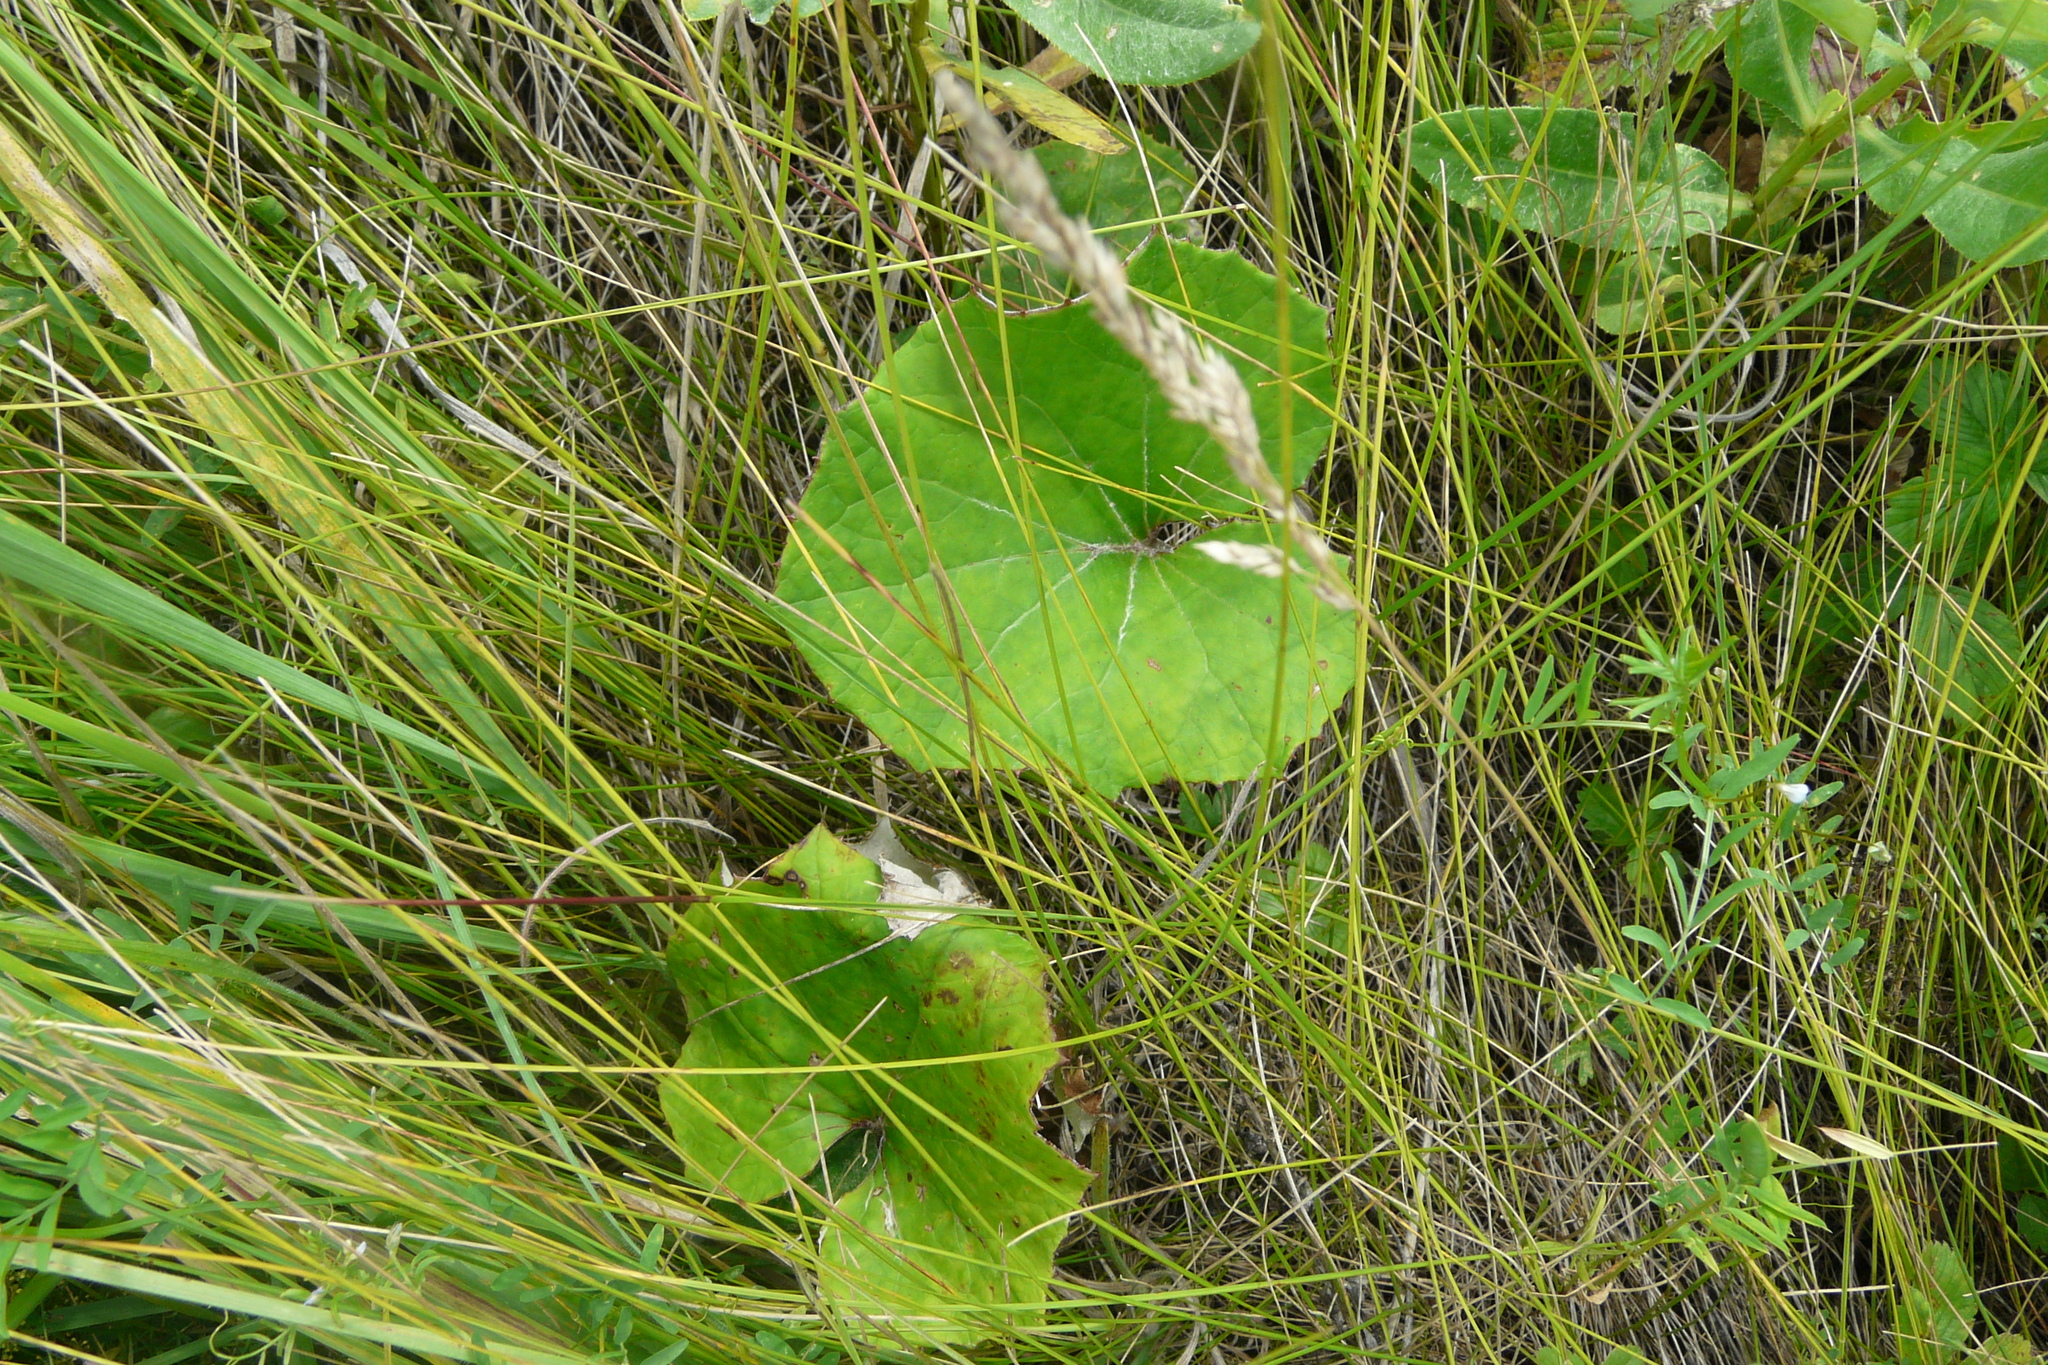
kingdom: Plantae
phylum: Tracheophyta
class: Magnoliopsida
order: Asterales
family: Asteraceae
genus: Tussilago
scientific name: Tussilago farfara
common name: Coltsfoot
